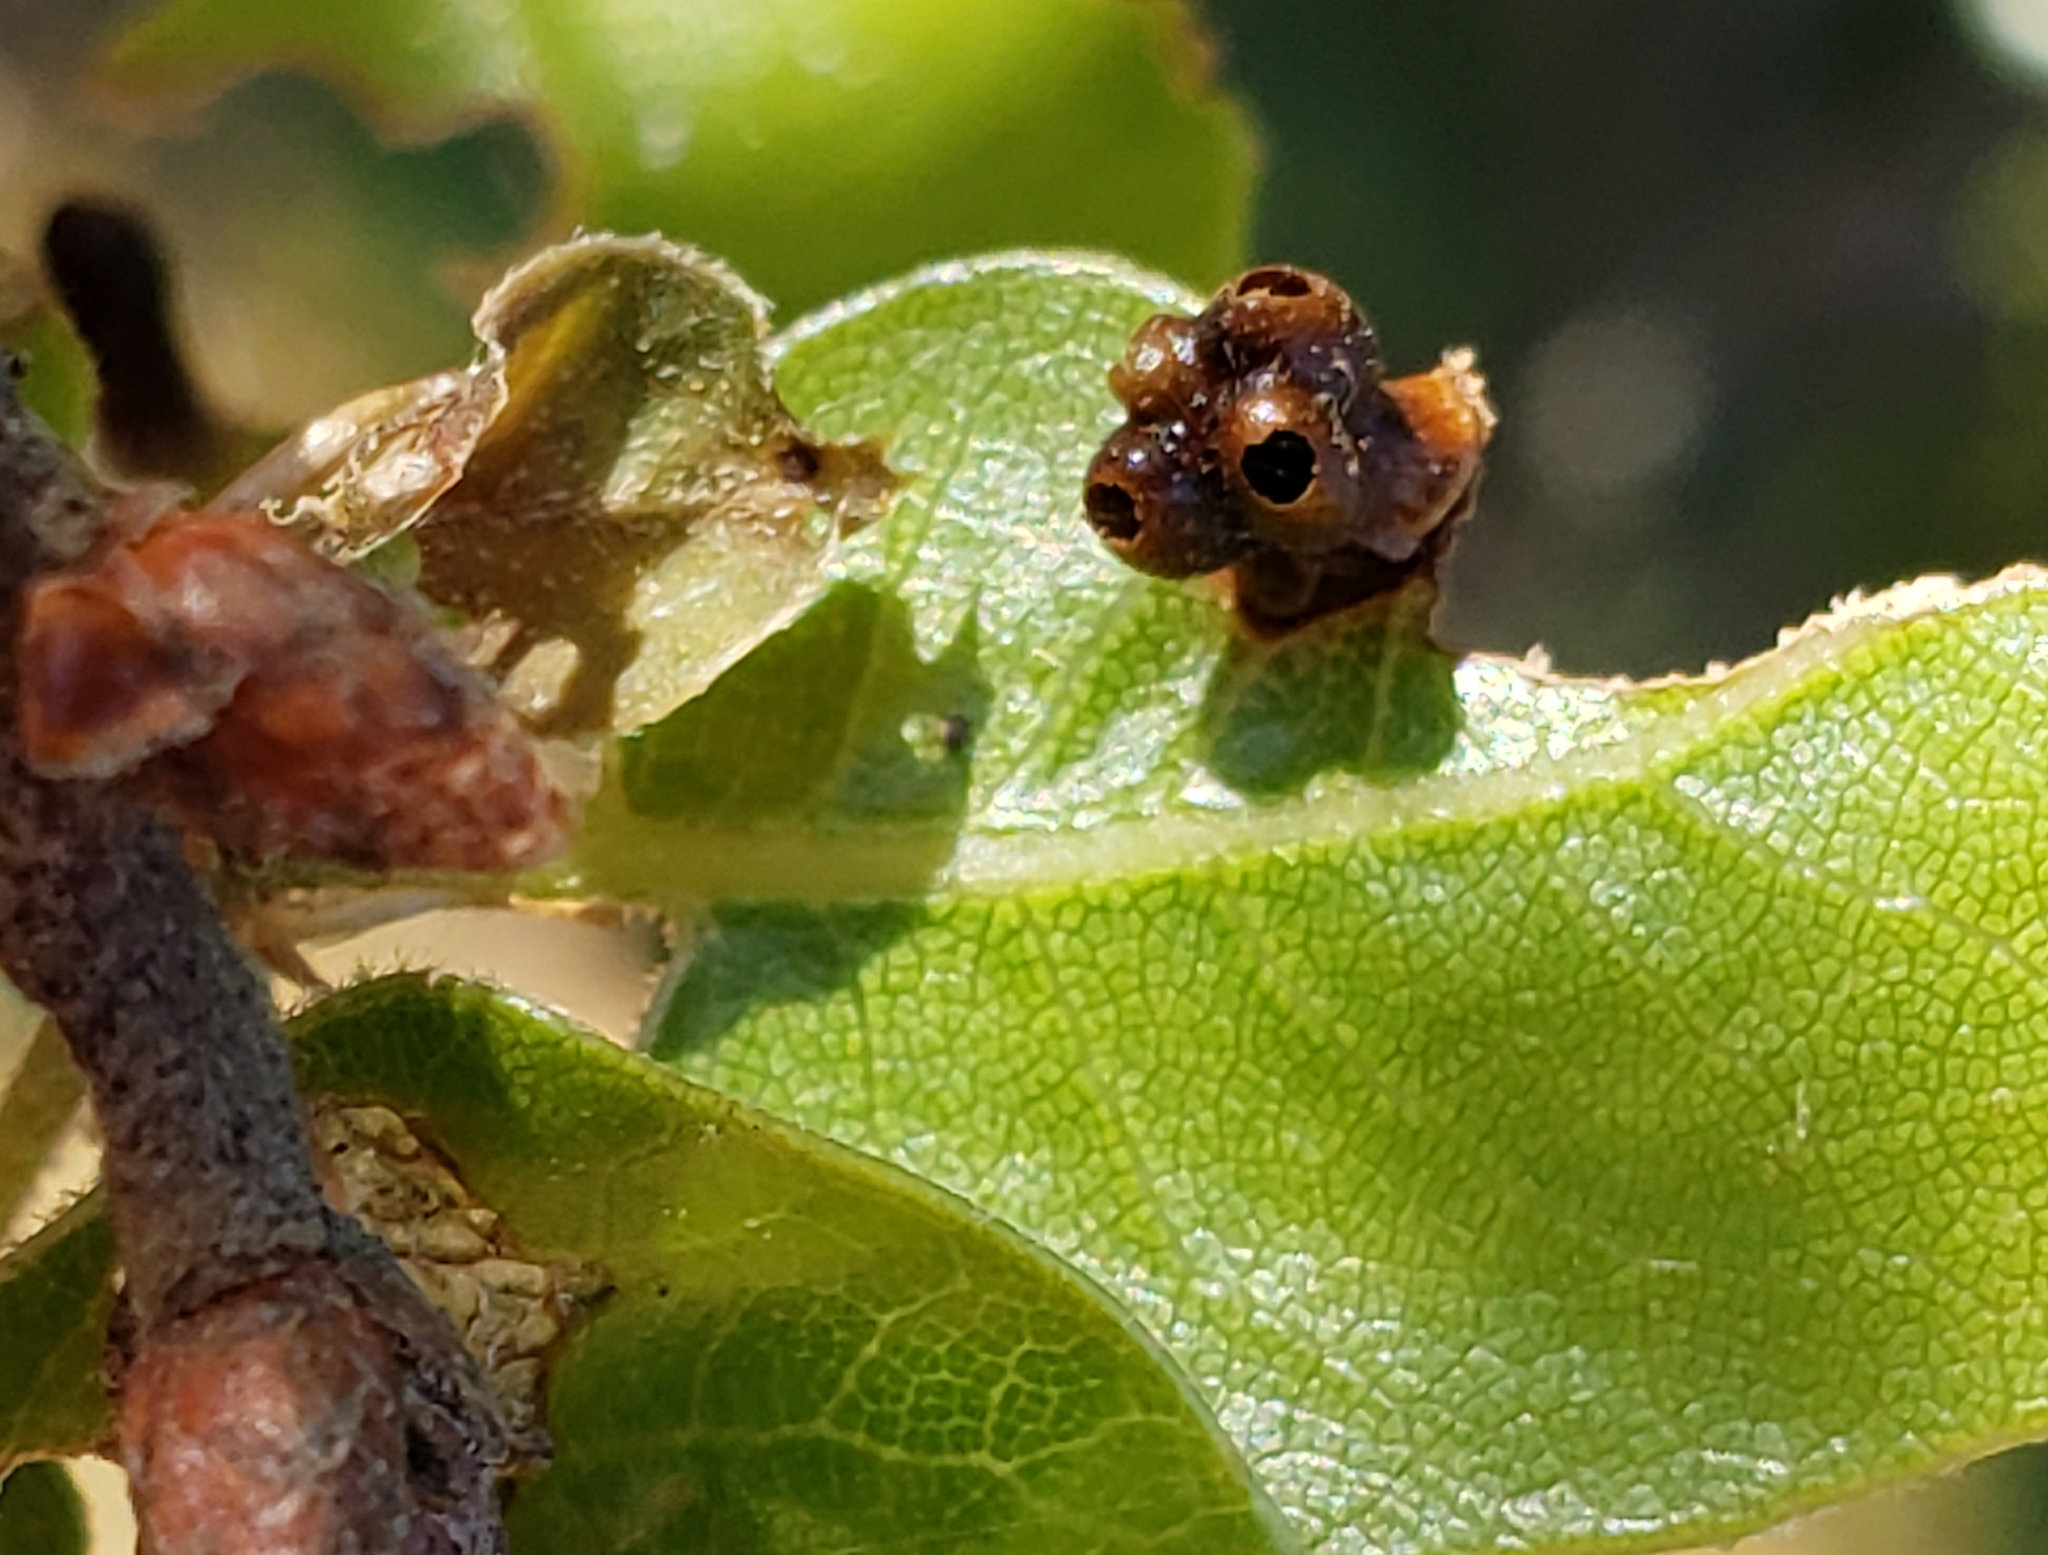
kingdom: Animalia
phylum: Arthropoda
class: Insecta
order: Hymenoptera
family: Cynipidae
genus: Dryocosmus
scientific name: Dryocosmus
